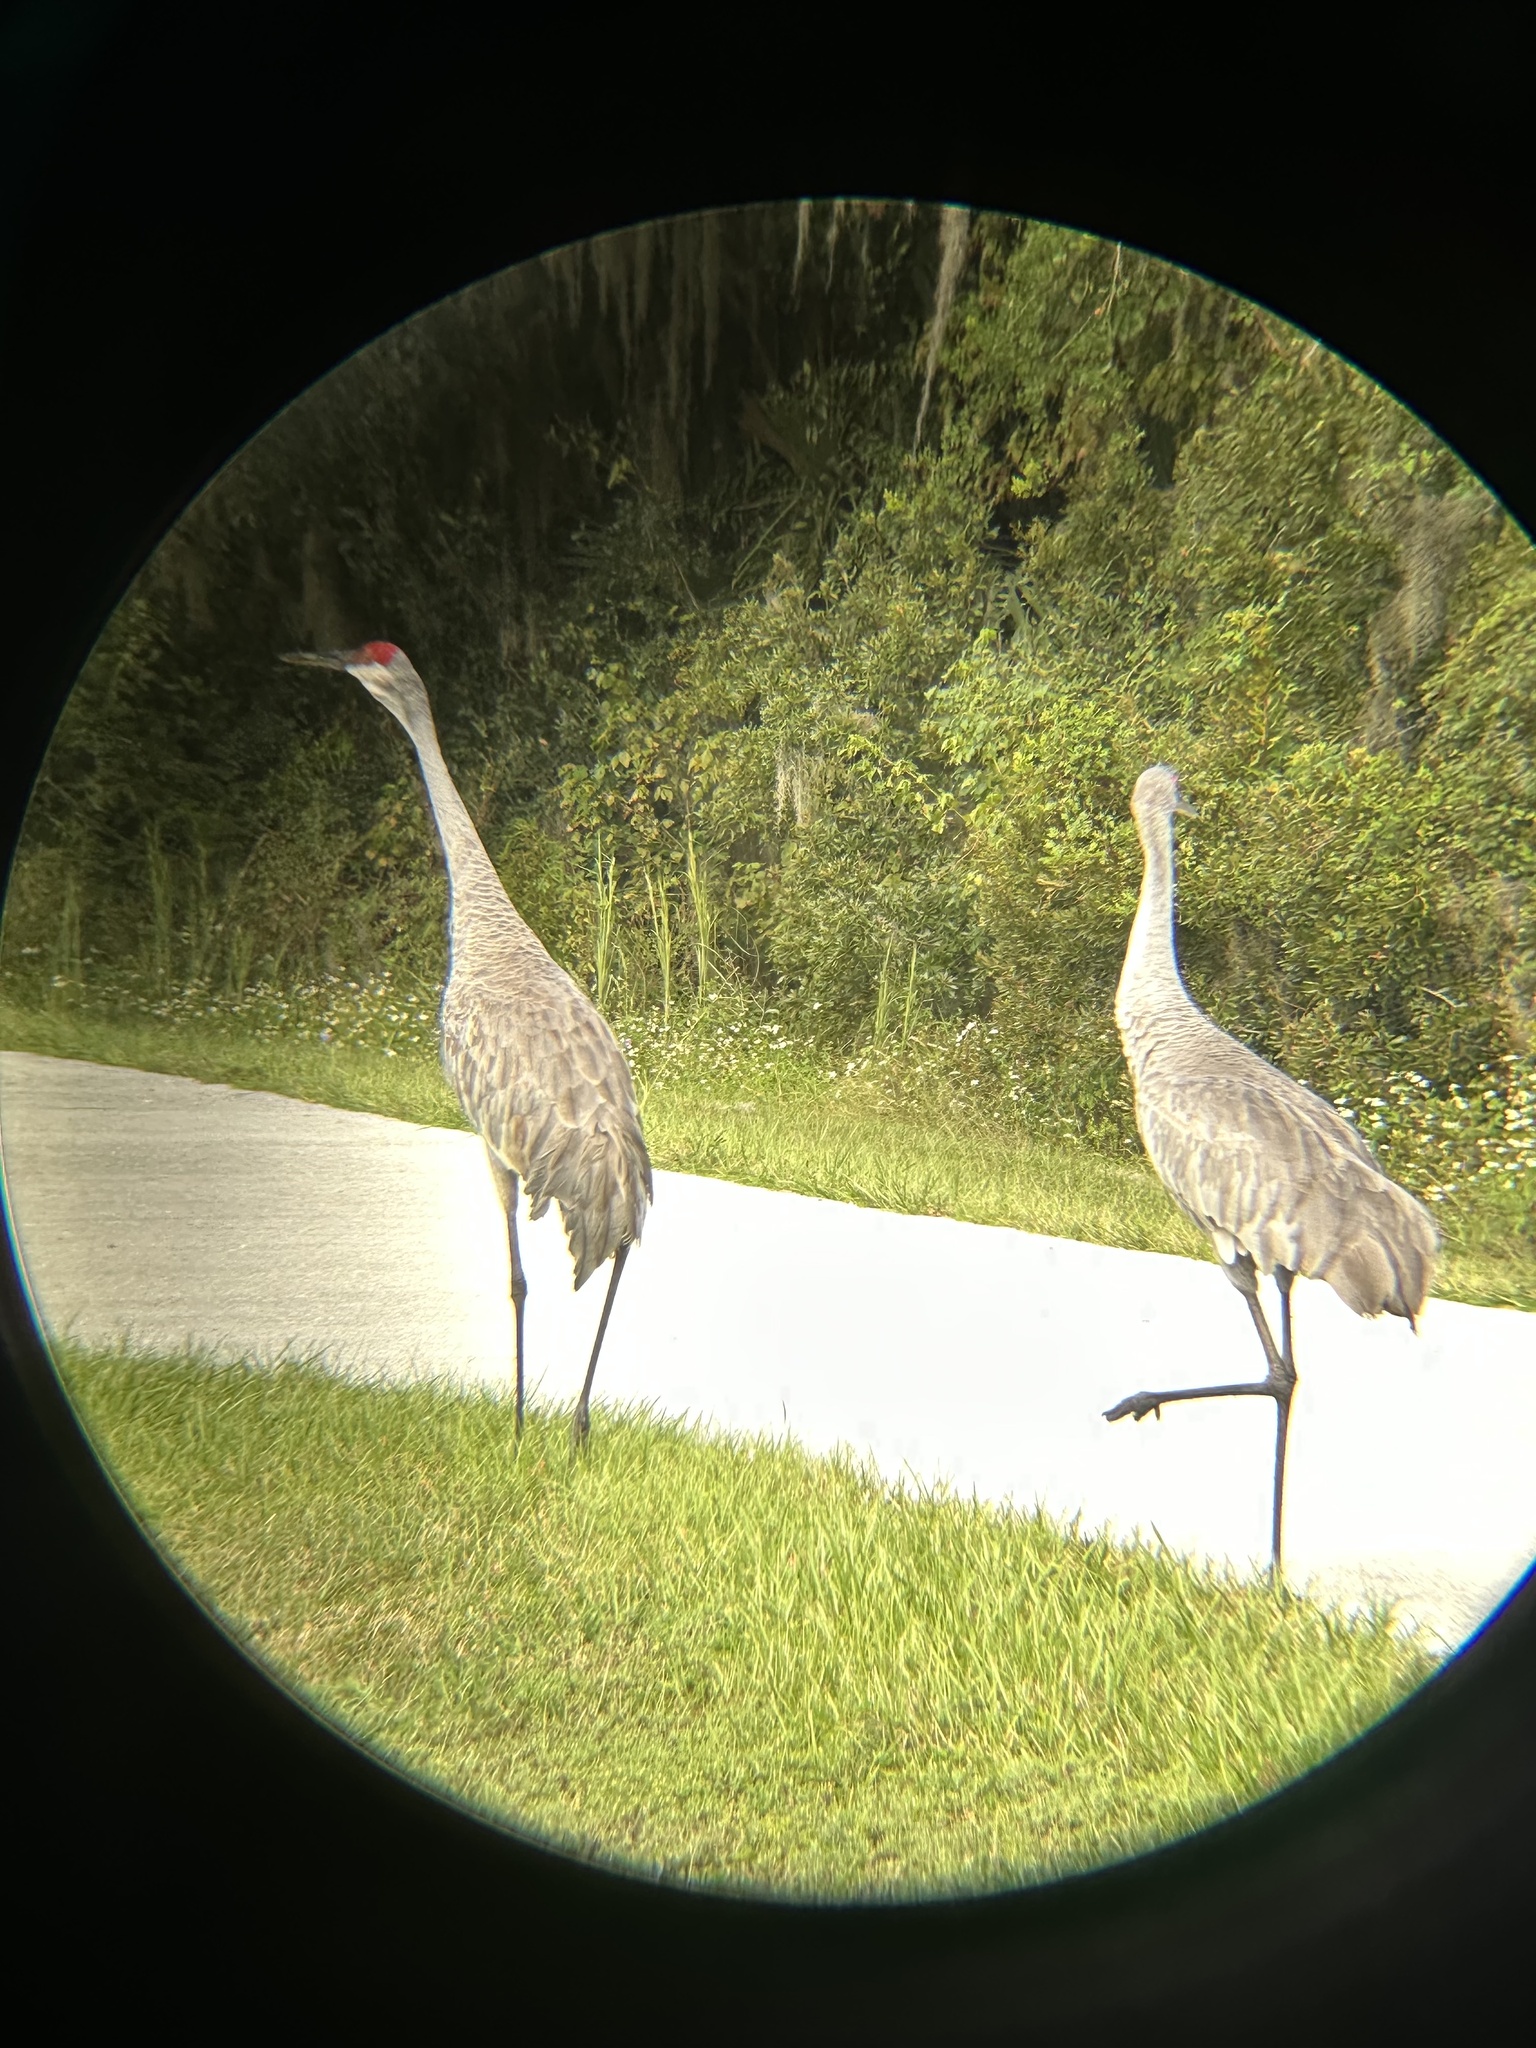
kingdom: Animalia
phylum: Chordata
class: Aves
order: Gruiformes
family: Gruidae
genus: Grus
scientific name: Grus canadensis
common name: Sandhill crane
